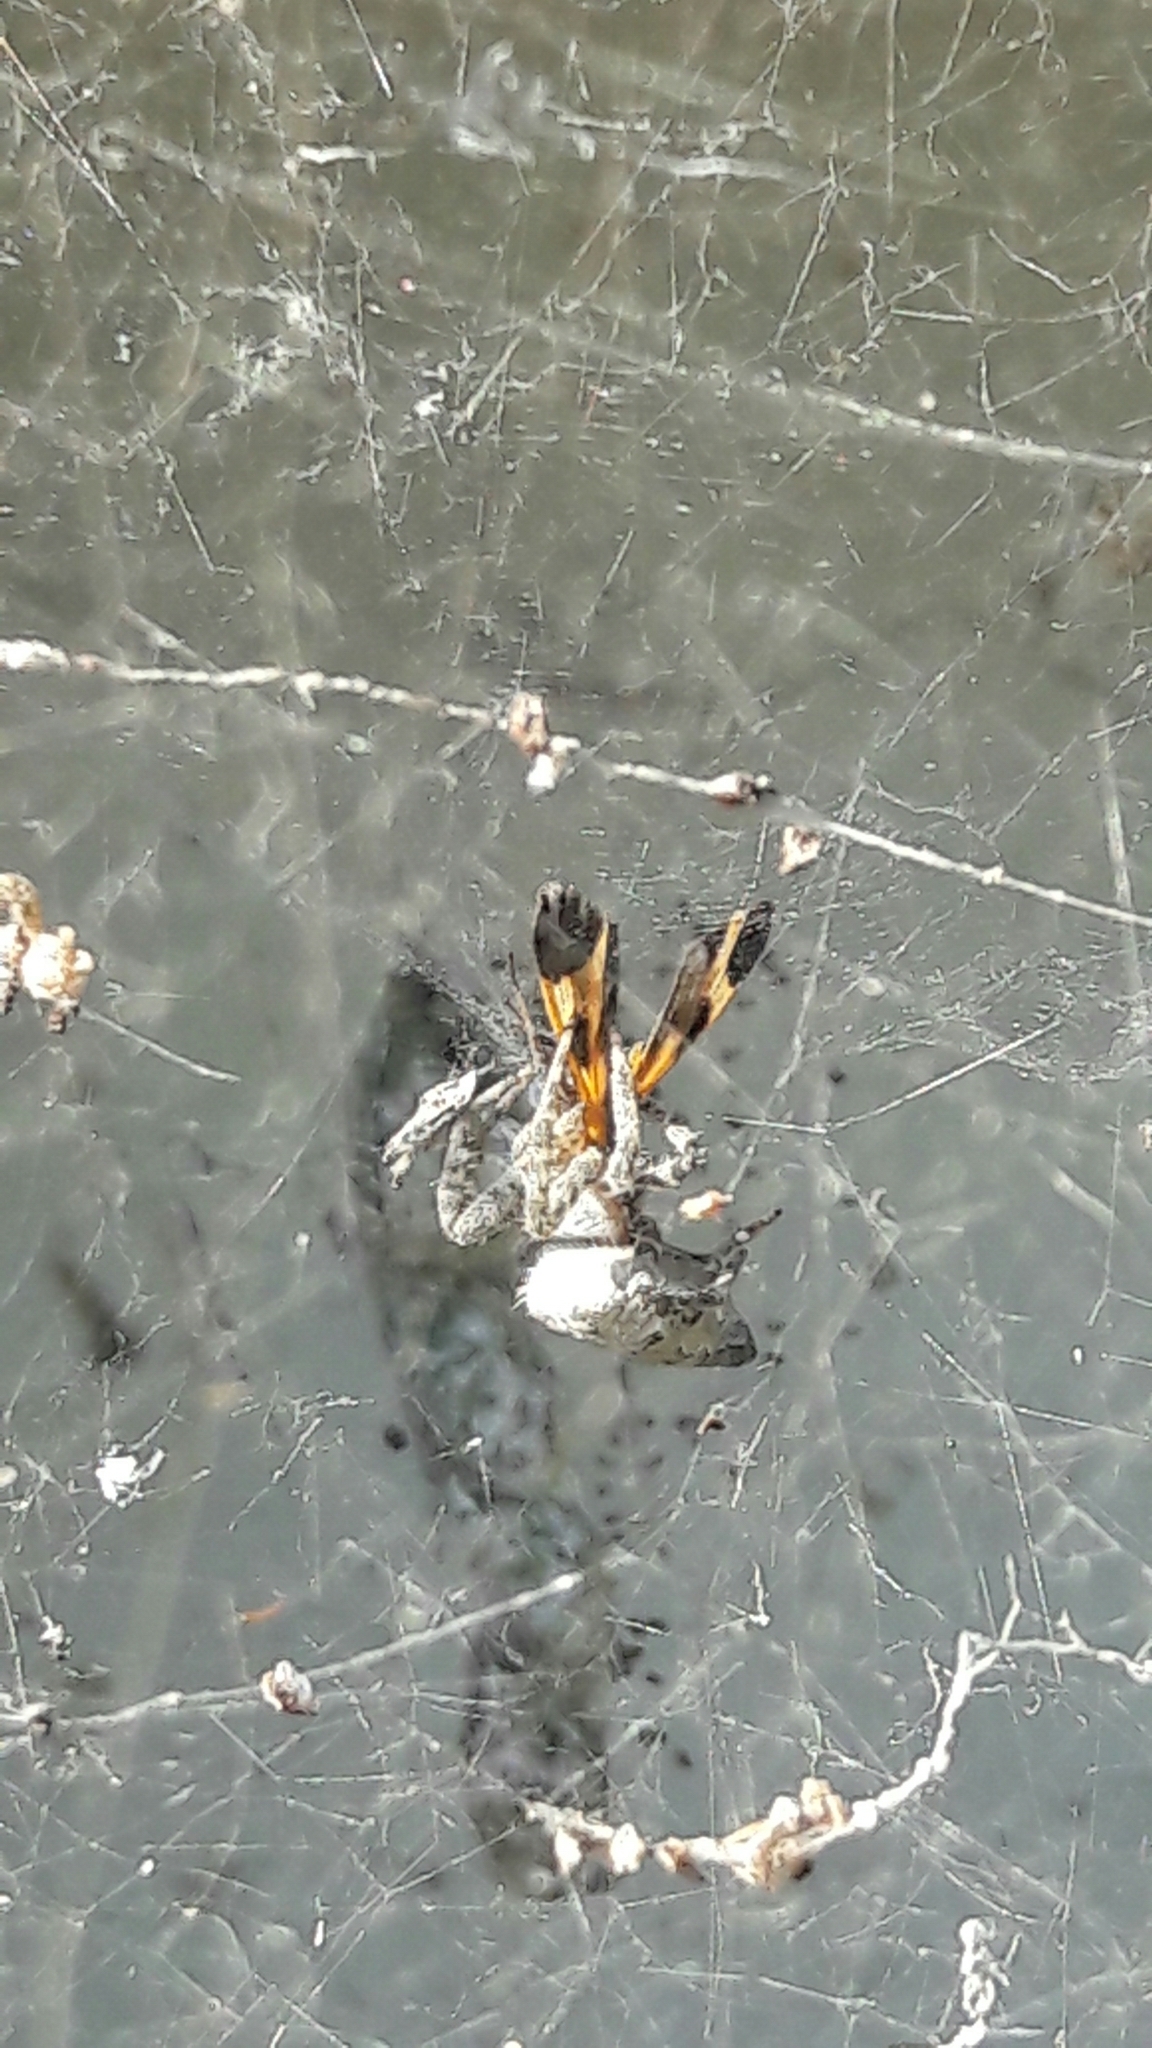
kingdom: Animalia
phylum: Arthropoda
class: Arachnida
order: Araneae
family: Araneidae
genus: Cyrtophora
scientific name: Cyrtophora citricola
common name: Orb weavers
